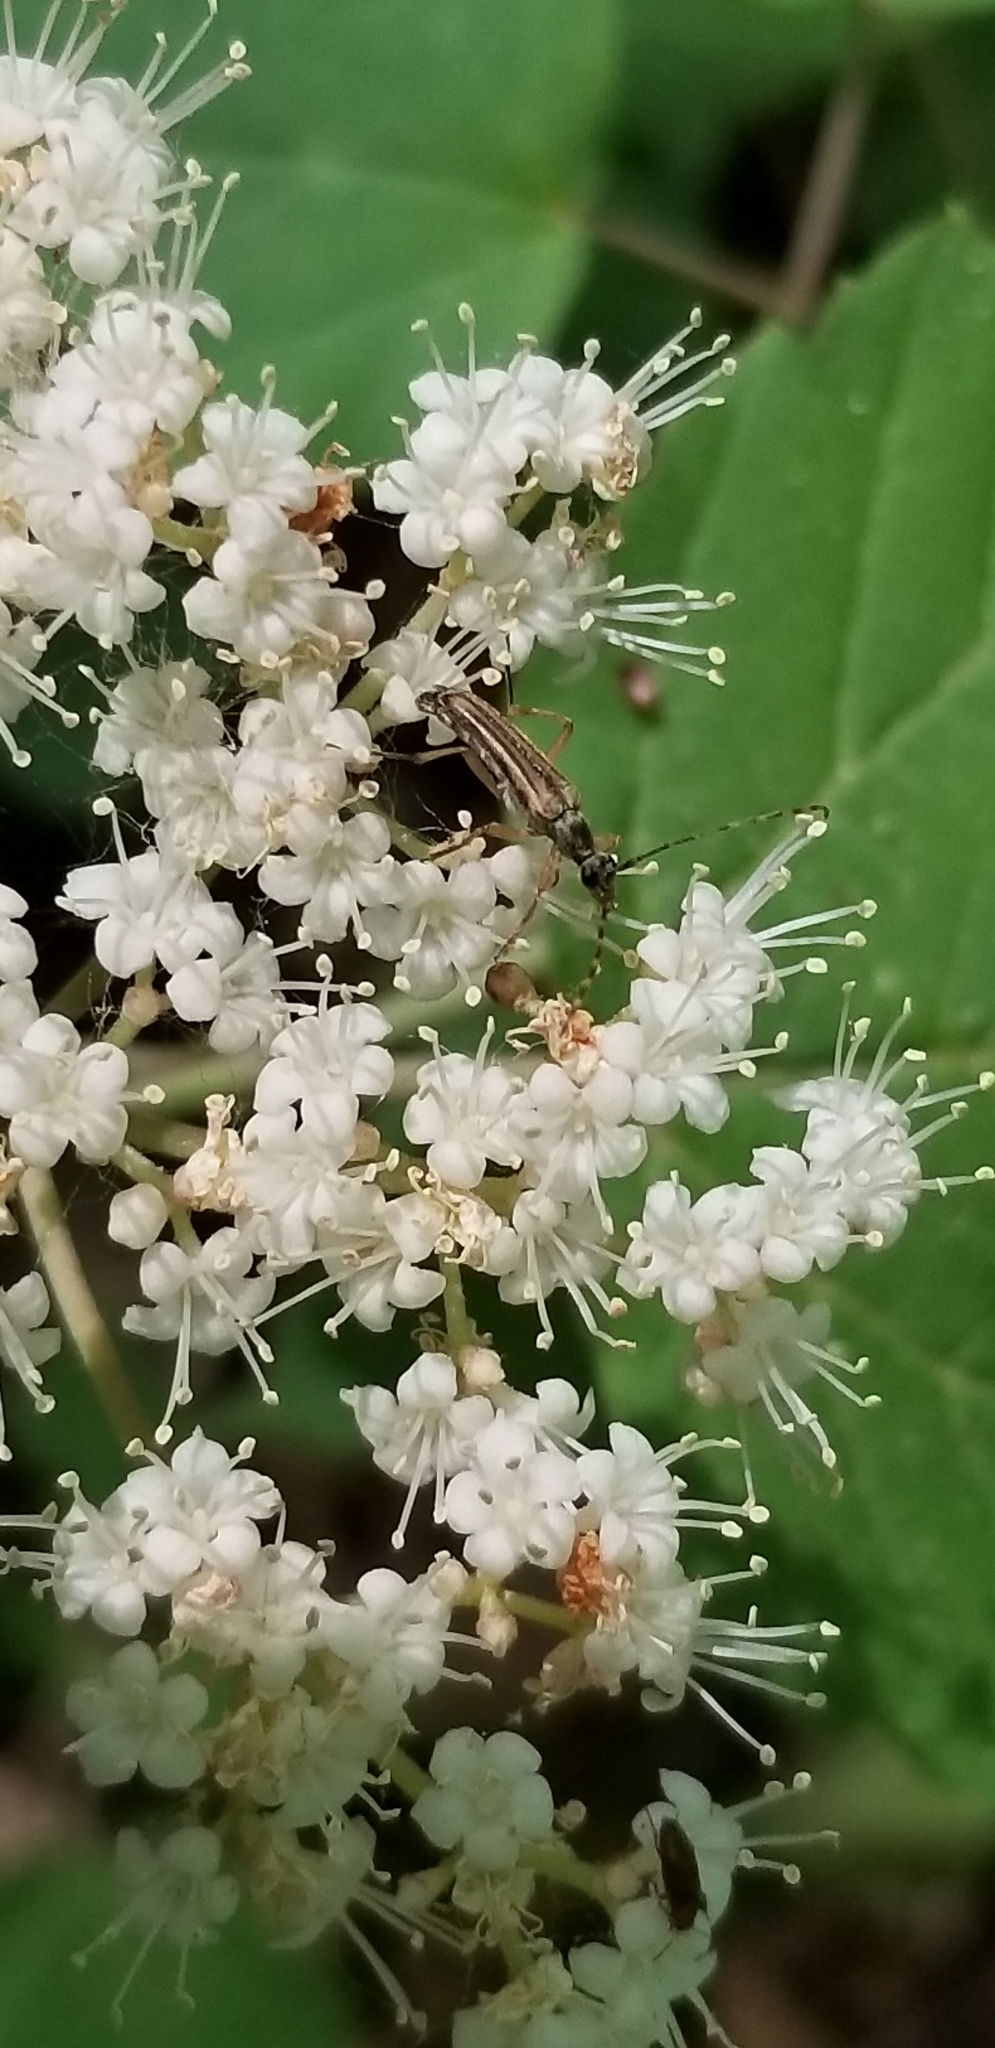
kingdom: Animalia
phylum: Arthropoda
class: Insecta
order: Coleoptera
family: Cerambycidae
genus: Analeptura
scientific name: Analeptura lineola
